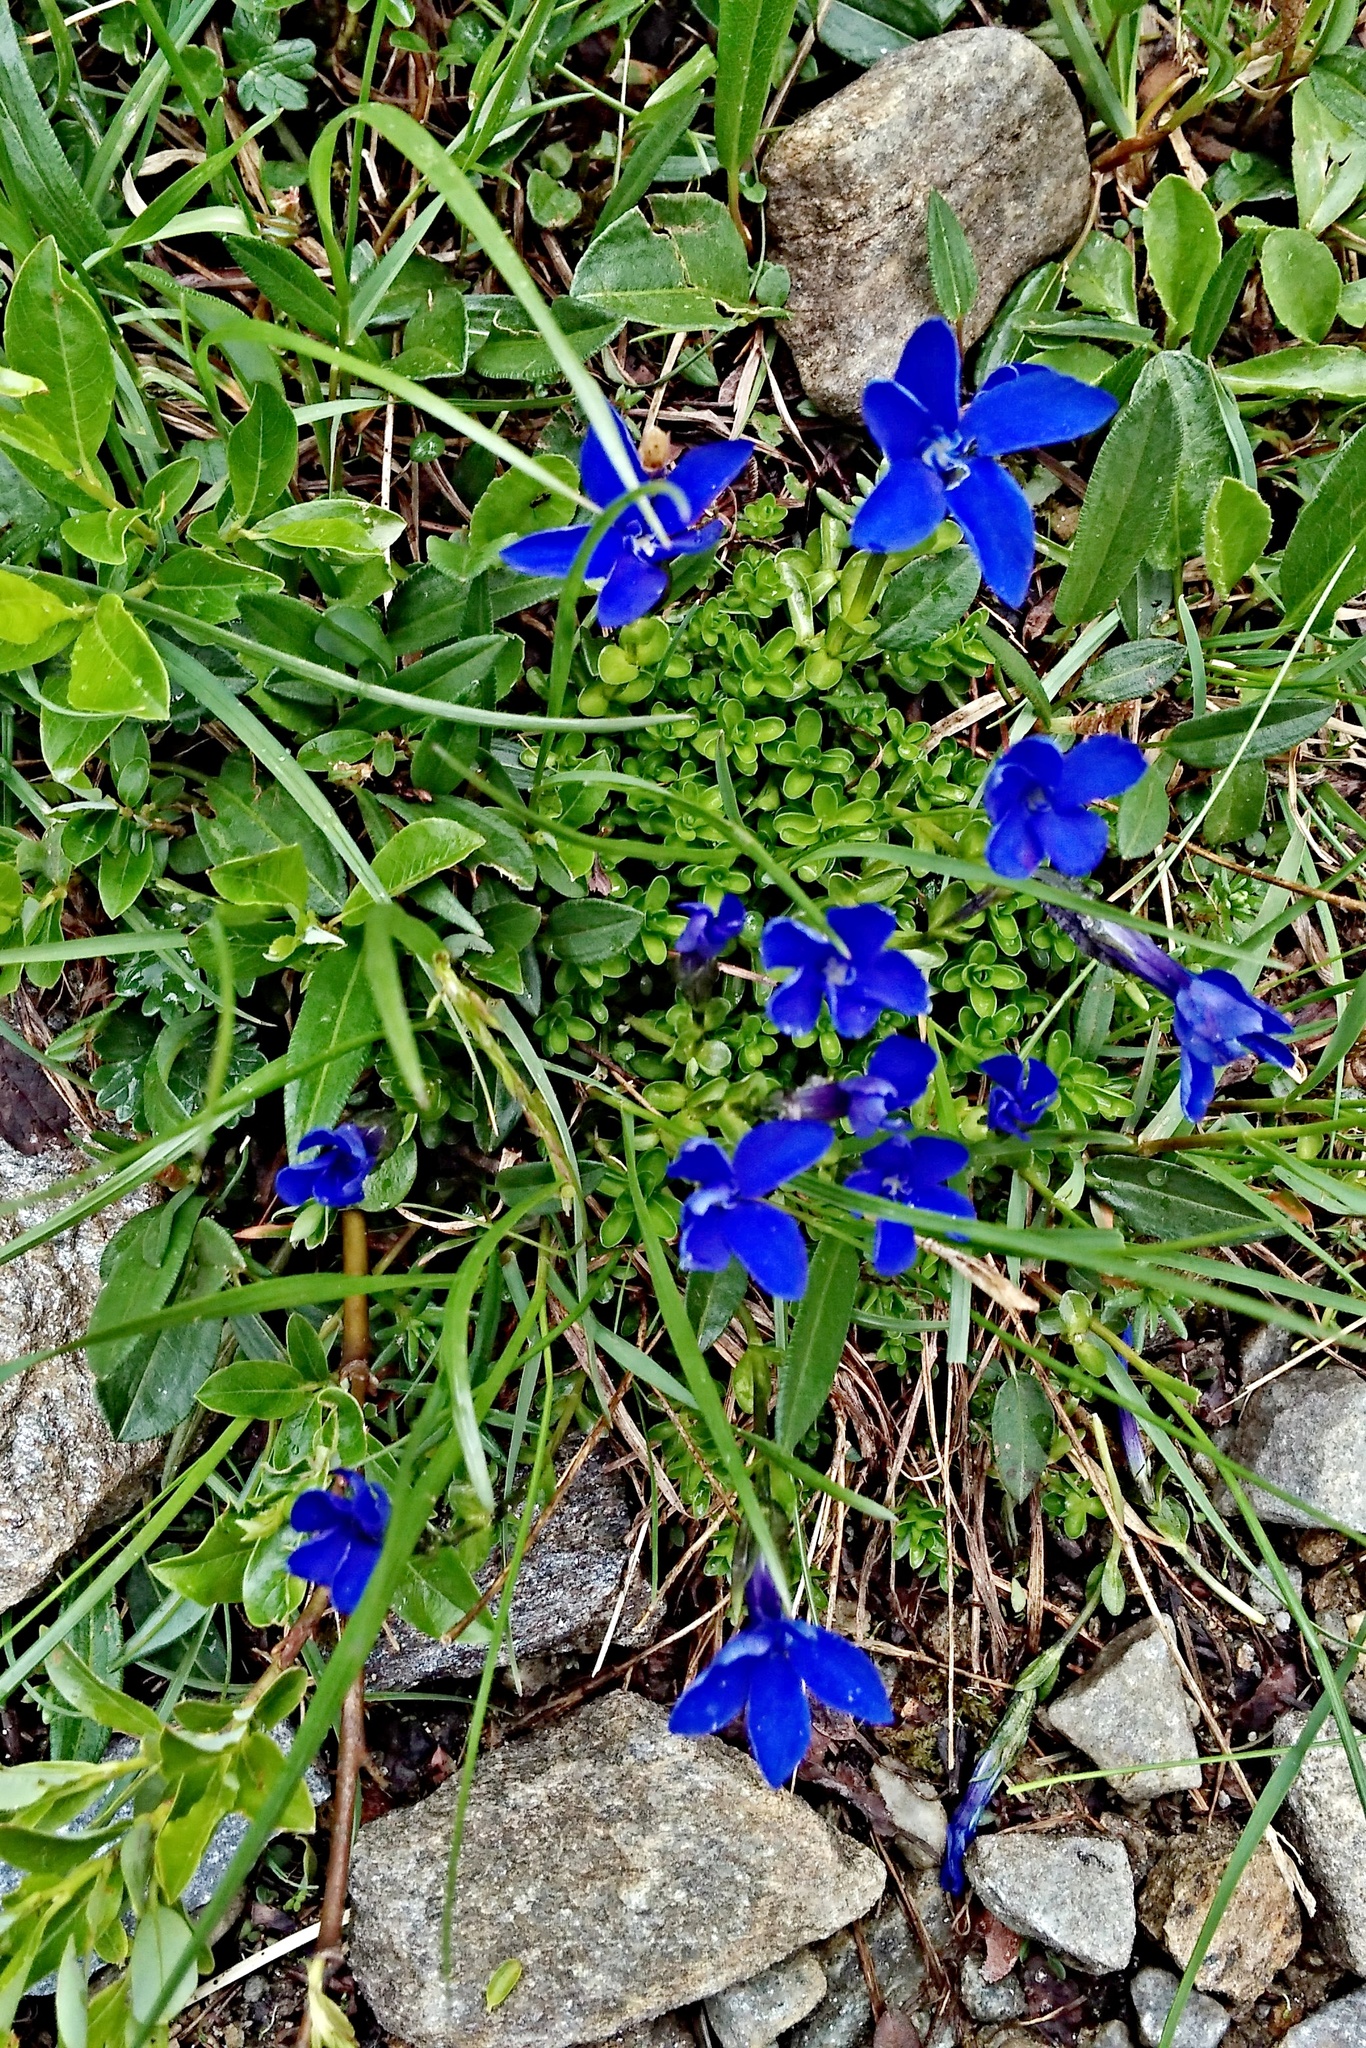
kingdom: Plantae
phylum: Tracheophyta
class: Magnoliopsida
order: Gentianales
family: Gentianaceae
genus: Gentiana
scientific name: Gentiana bavarica
